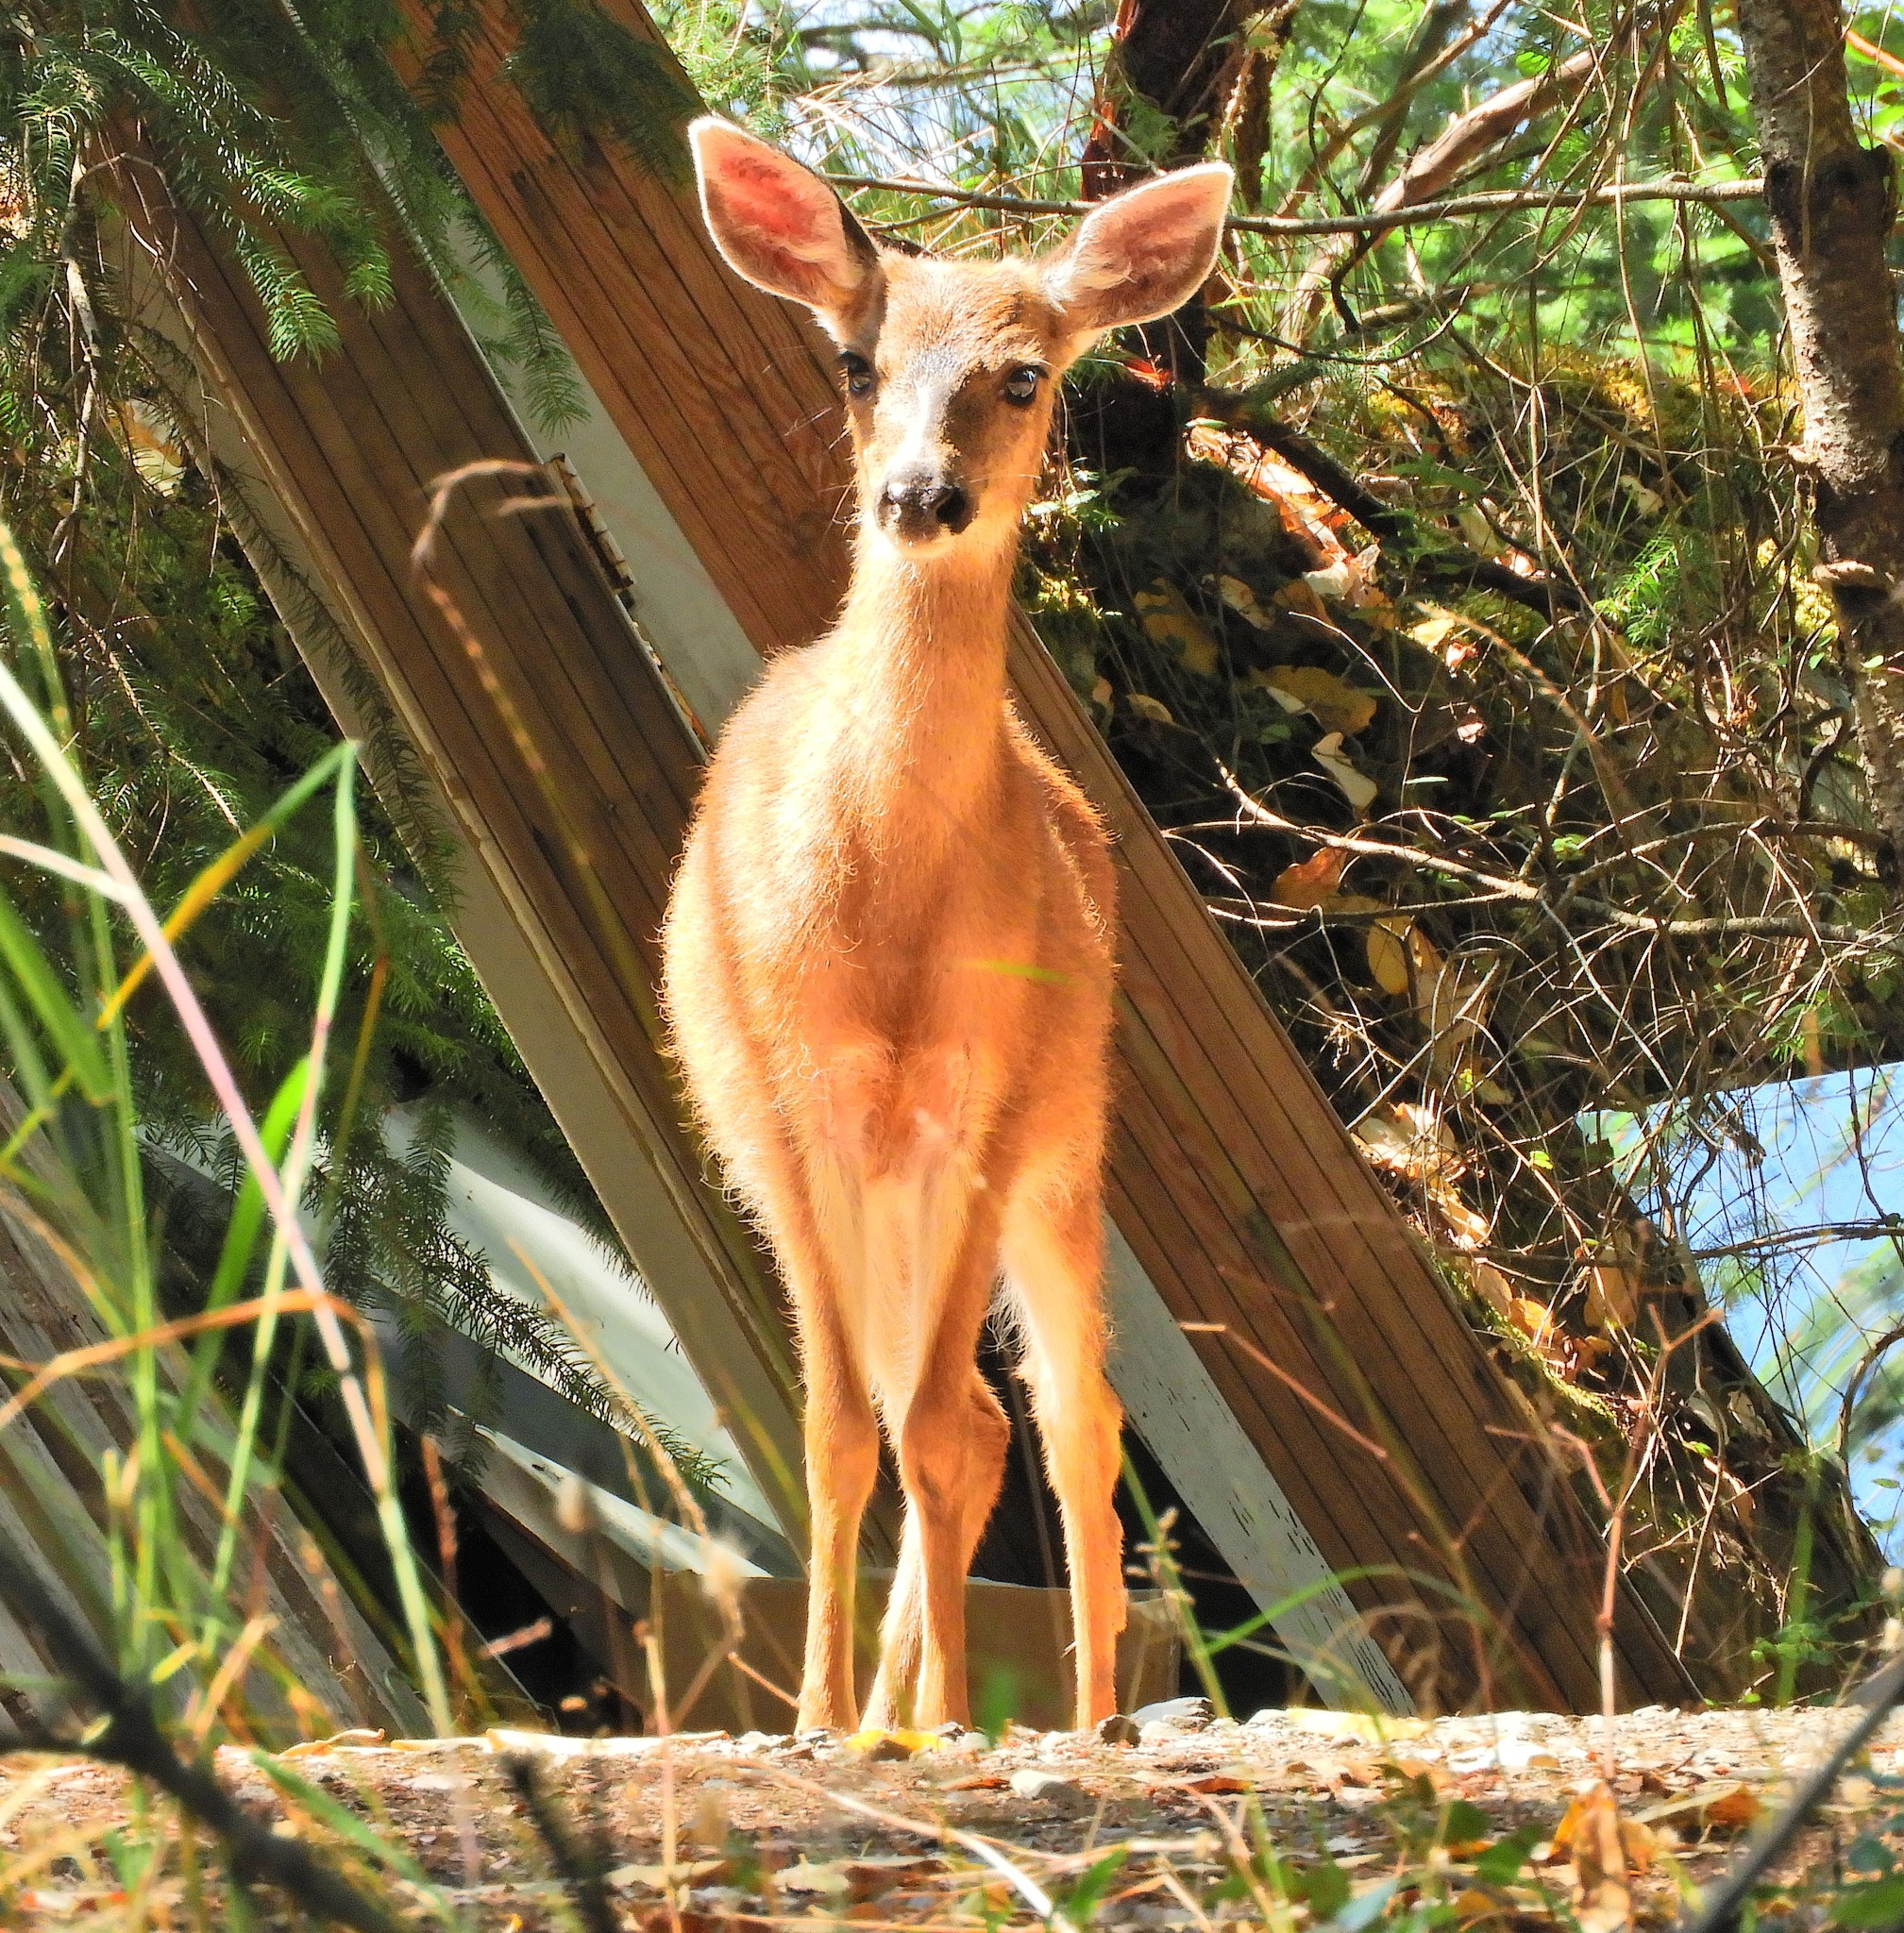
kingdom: Animalia
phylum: Chordata
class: Mammalia
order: Artiodactyla
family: Cervidae
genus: Odocoileus
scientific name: Odocoileus hemionus
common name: Mule deer
